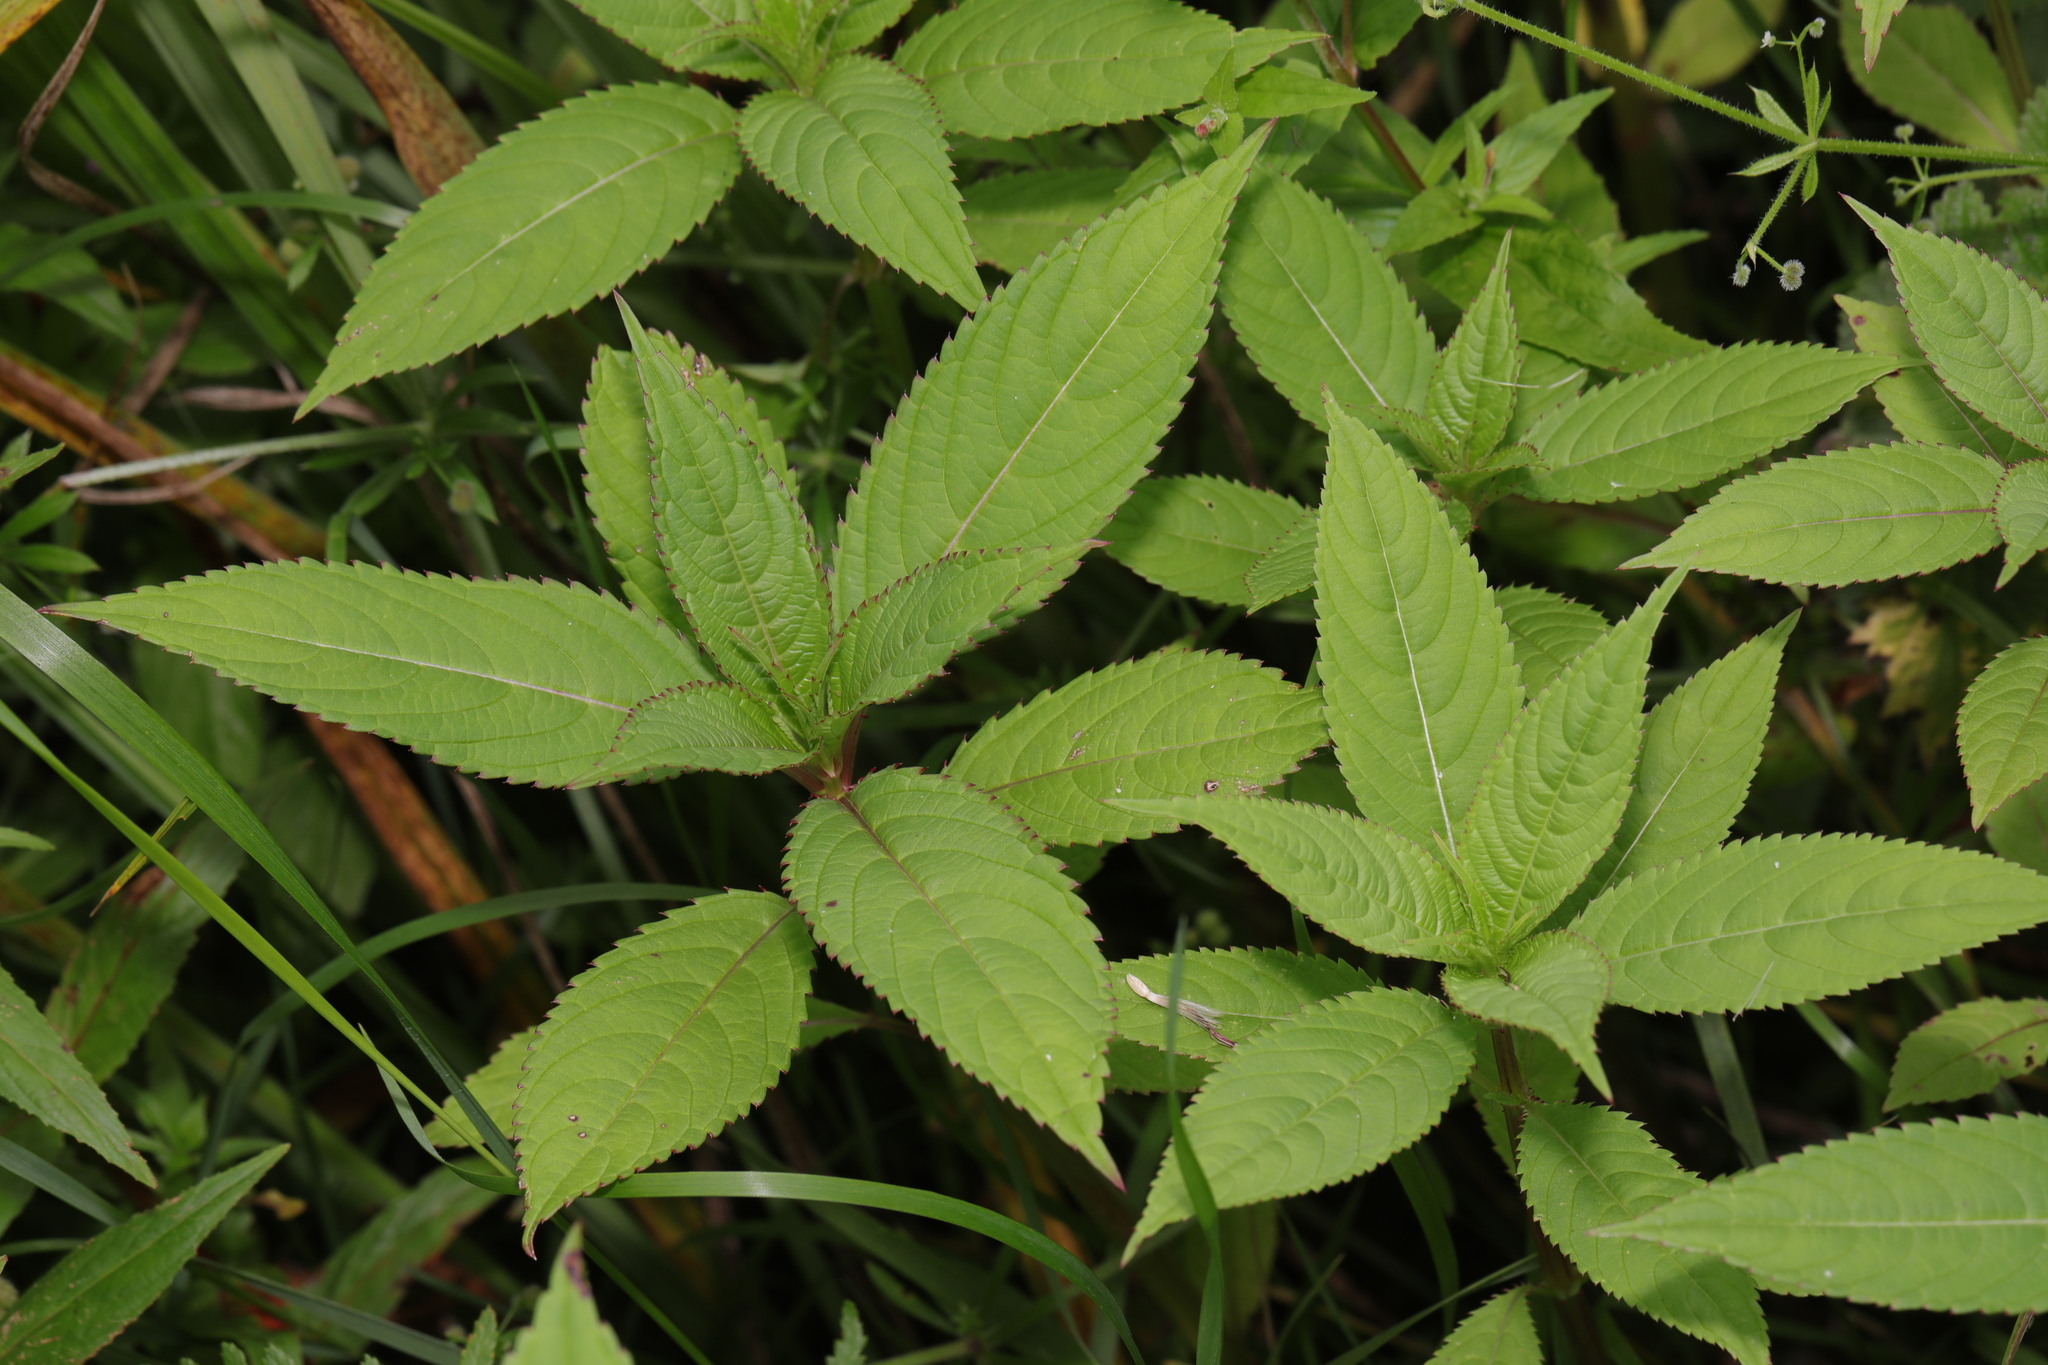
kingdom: Plantae
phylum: Tracheophyta
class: Magnoliopsida
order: Ericales
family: Balsaminaceae
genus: Impatiens
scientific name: Impatiens glandulifera
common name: Himalayan balsam
